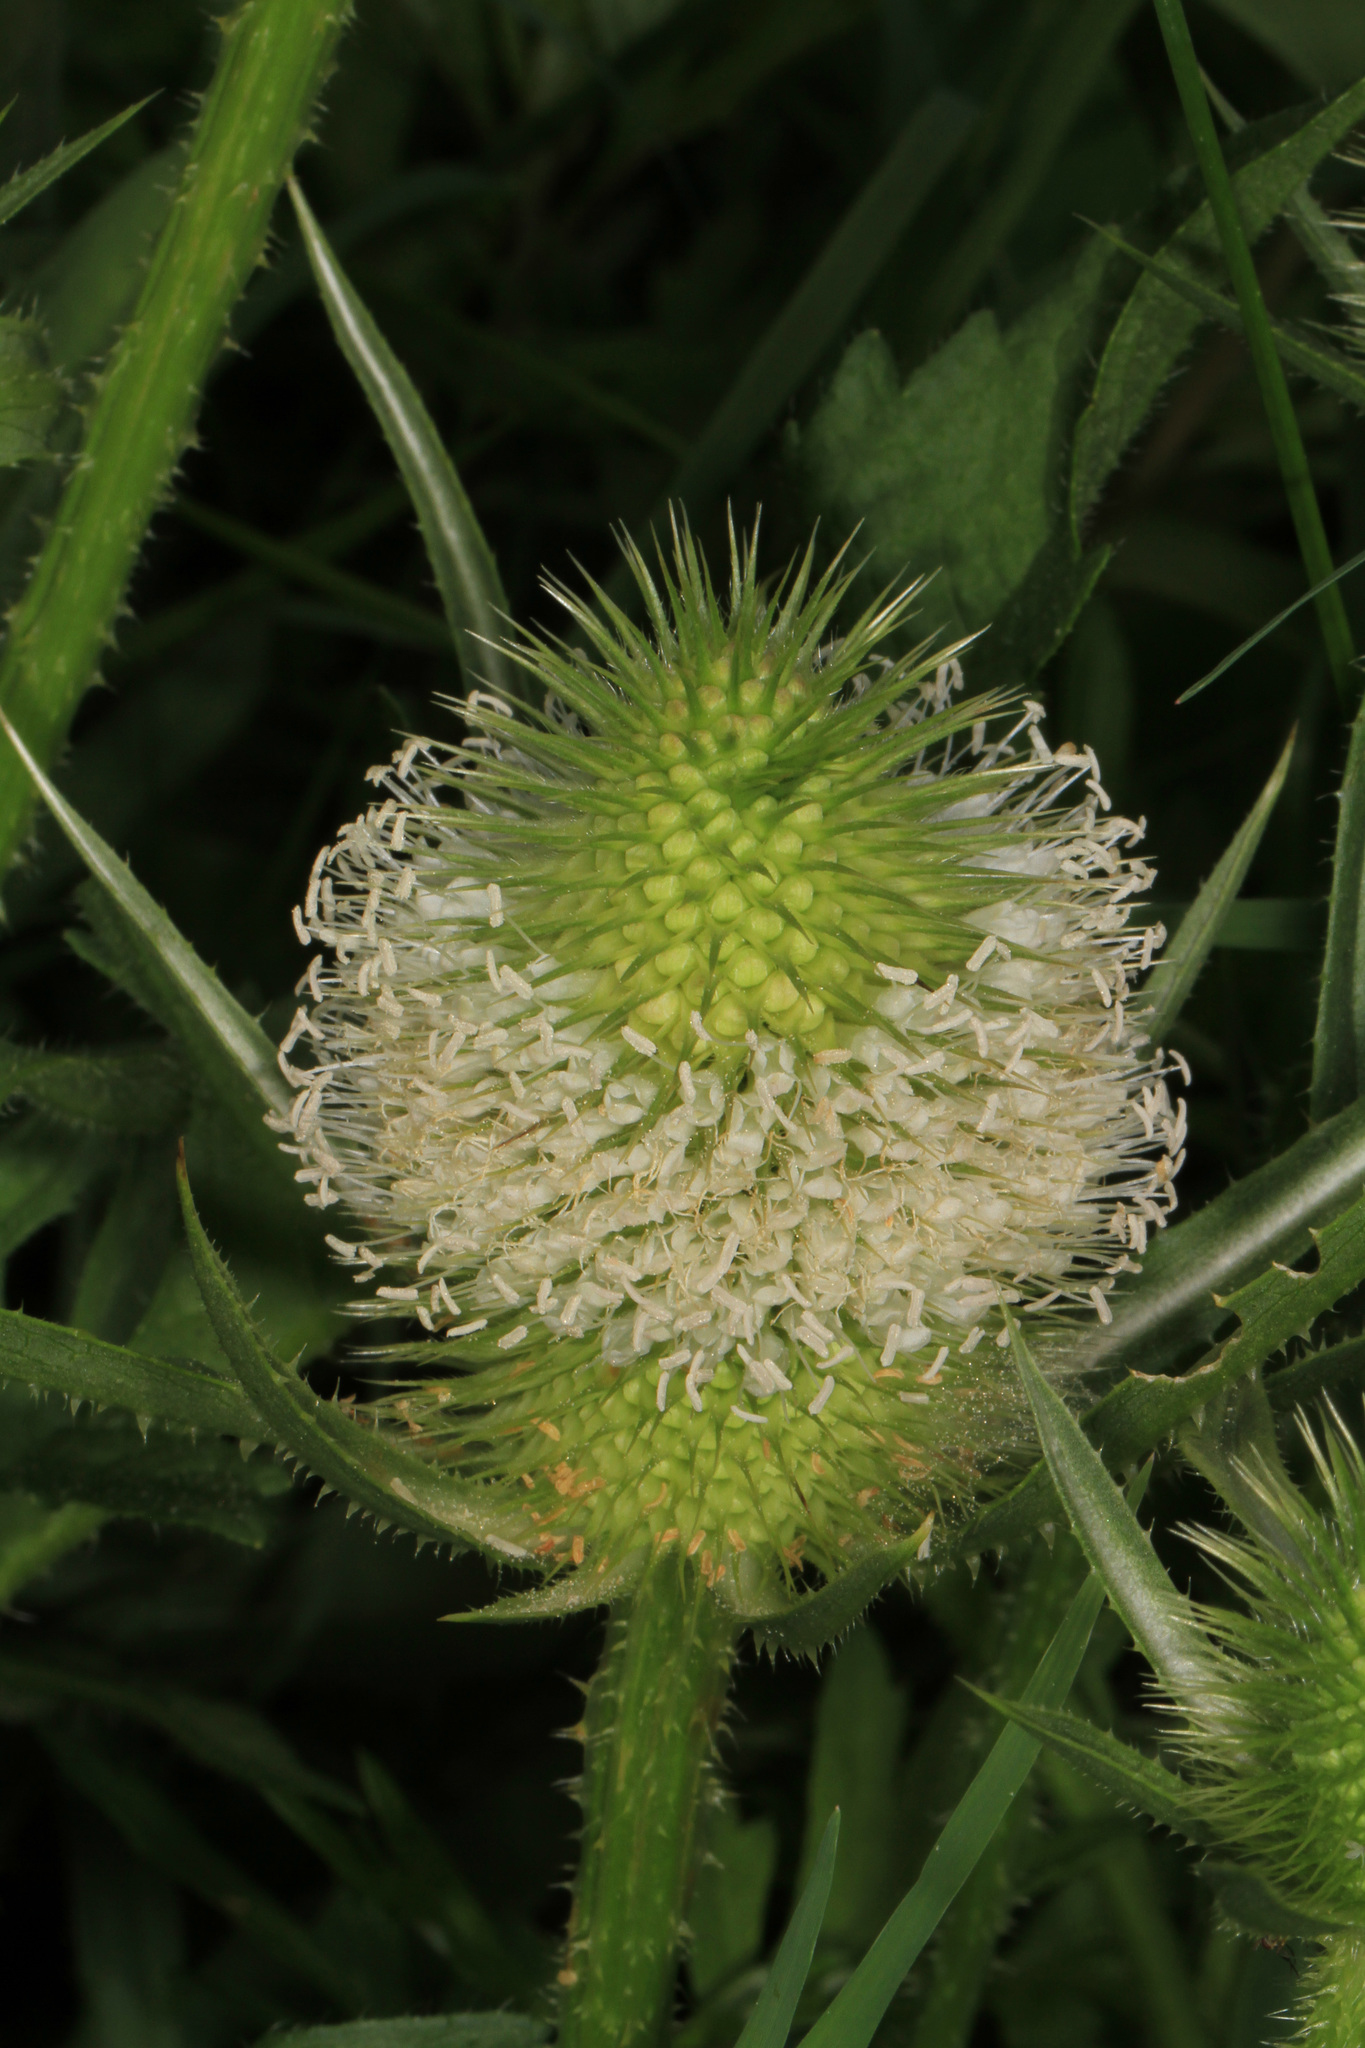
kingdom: Plantae
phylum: Tracheophyta
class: Magnoliopsida
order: Dipsacales
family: Caprifoliaceae
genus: Dipsacus
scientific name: Dipsacus laciniatus
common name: Cut-leaved teasel
